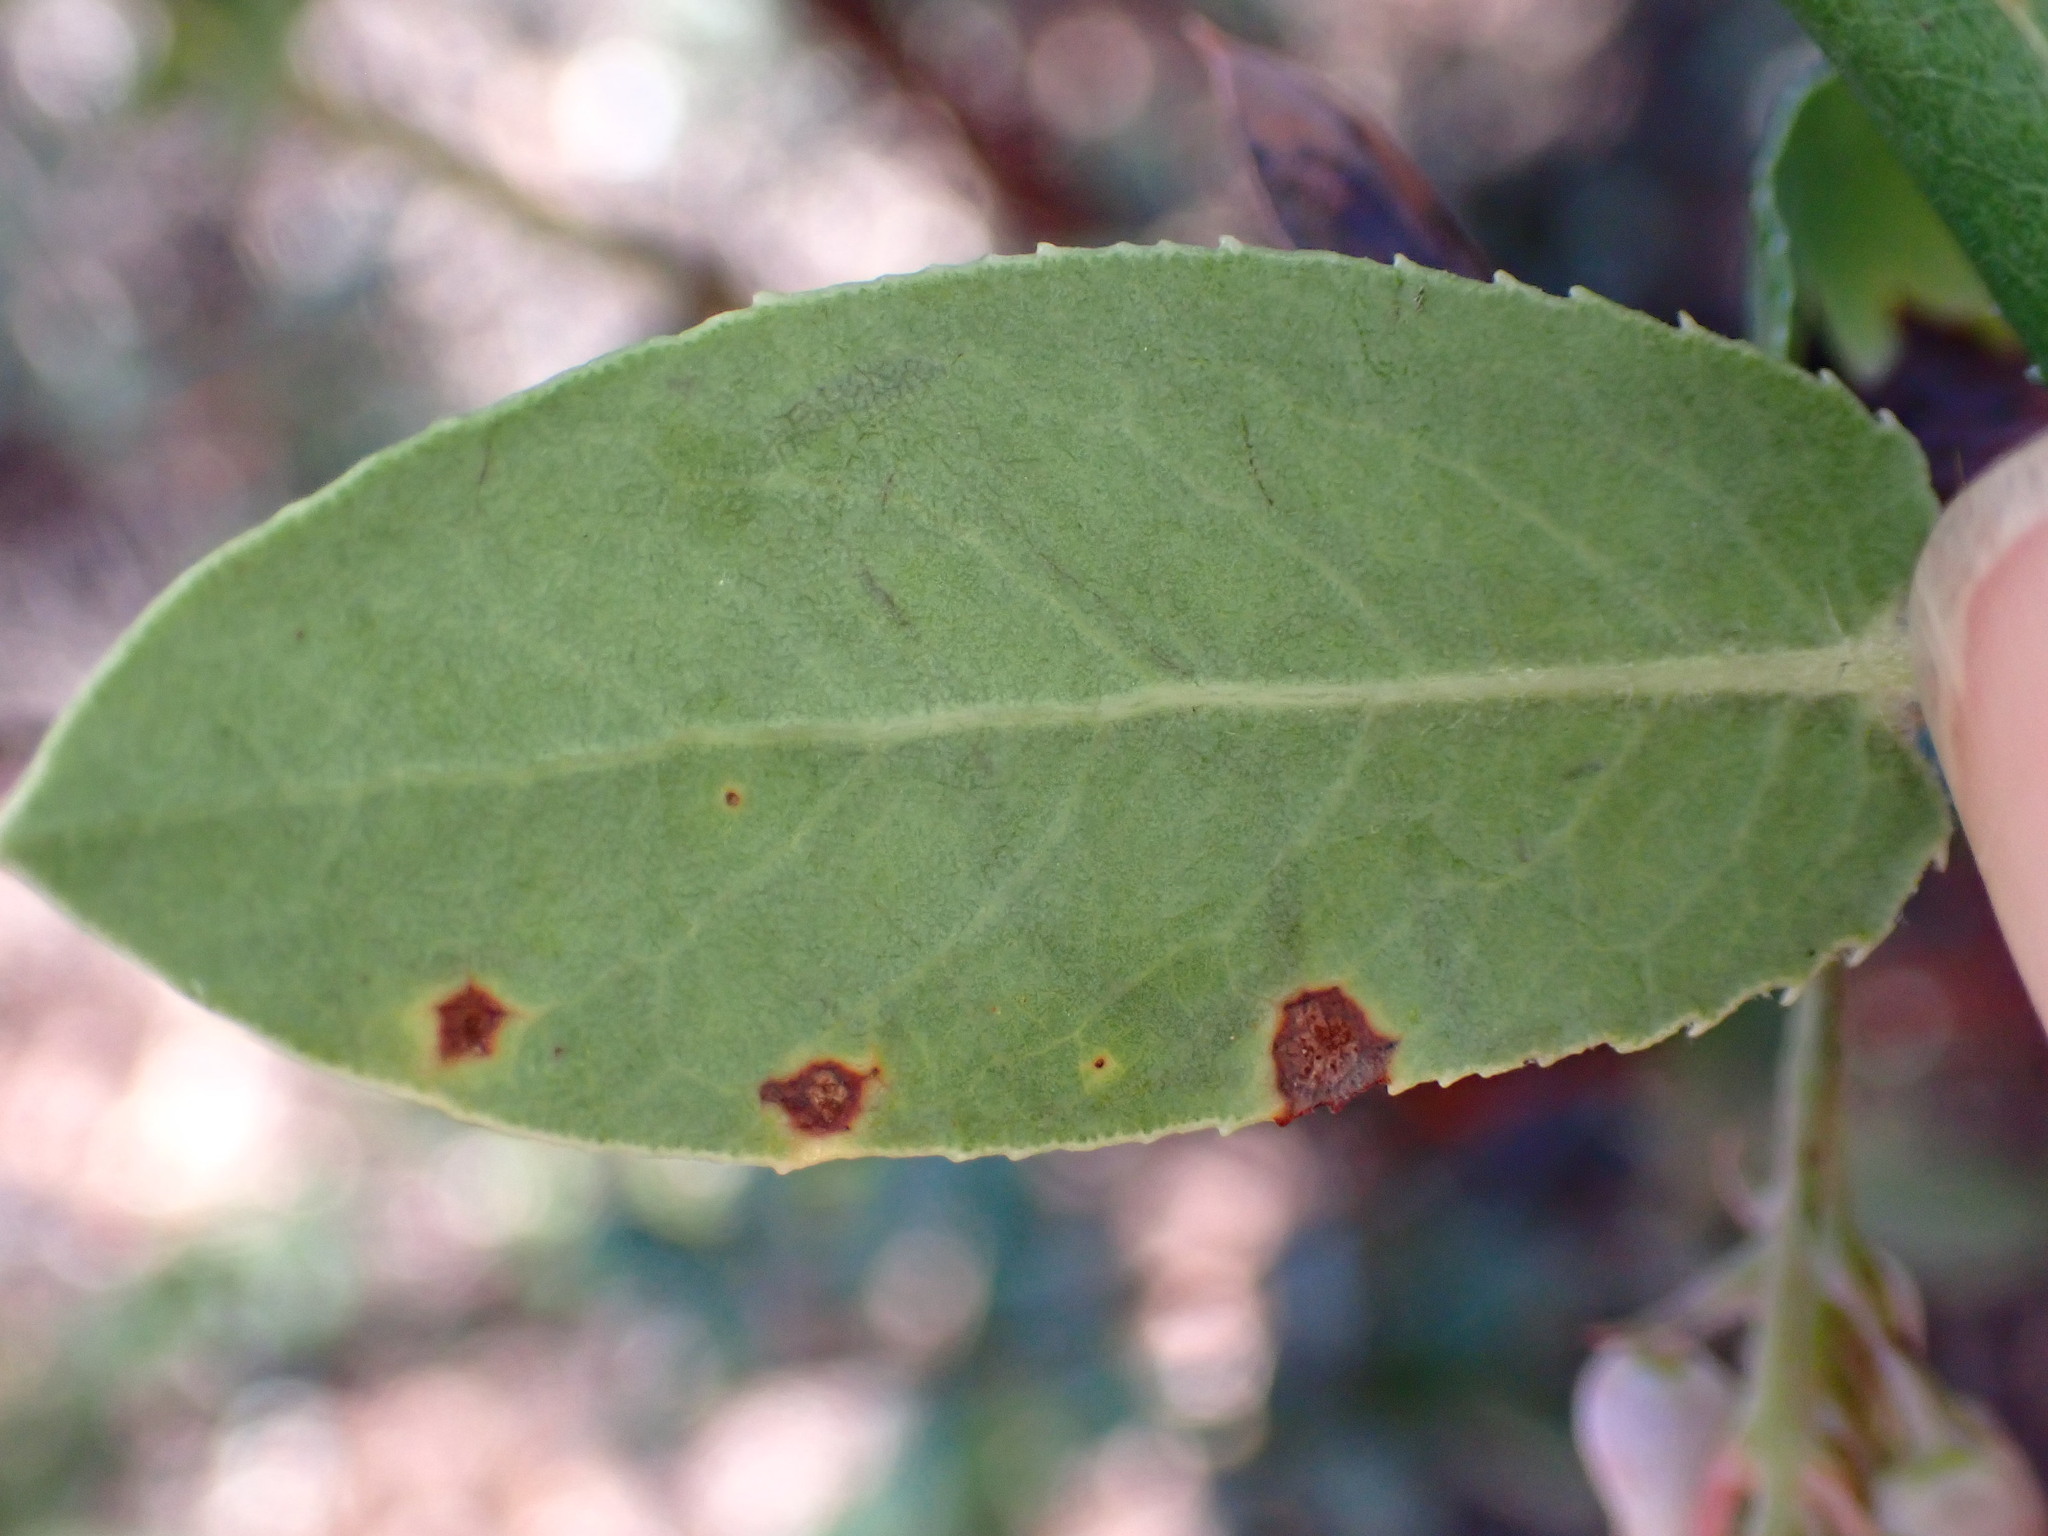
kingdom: Animalia
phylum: Arthropoda
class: Insecta
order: Lepidoptera
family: Gracillariidae
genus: Marmara
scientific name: Marmara arbutiella
